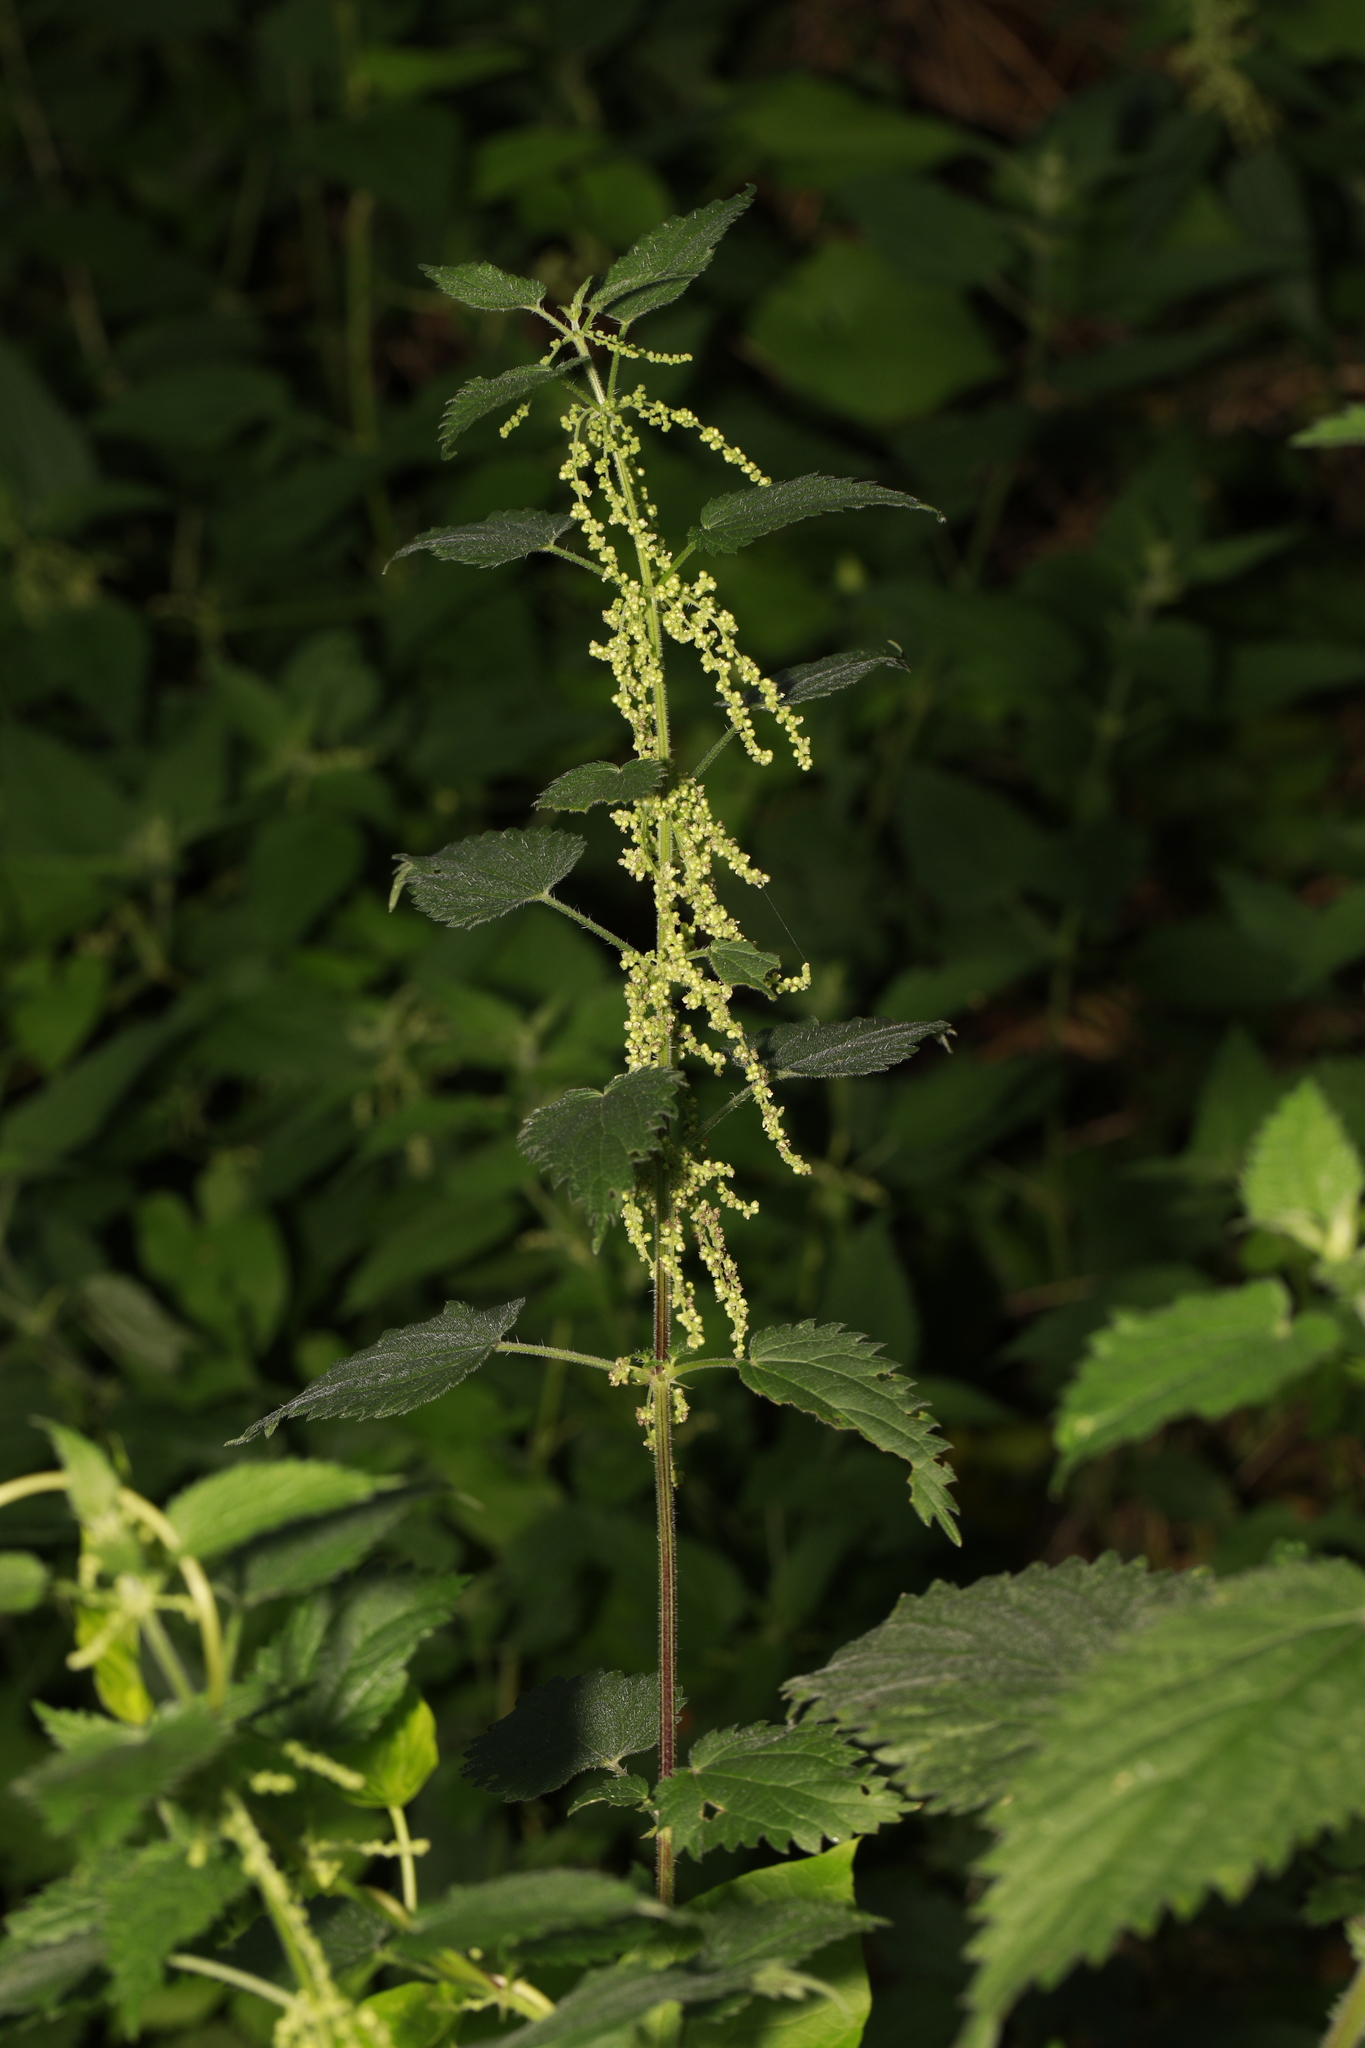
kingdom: Plantae
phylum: Tracheophyta
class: Magnoliopsida
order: Rosales
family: Urticaceae
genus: Urtica
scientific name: Urtica dioica
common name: Common nettle
